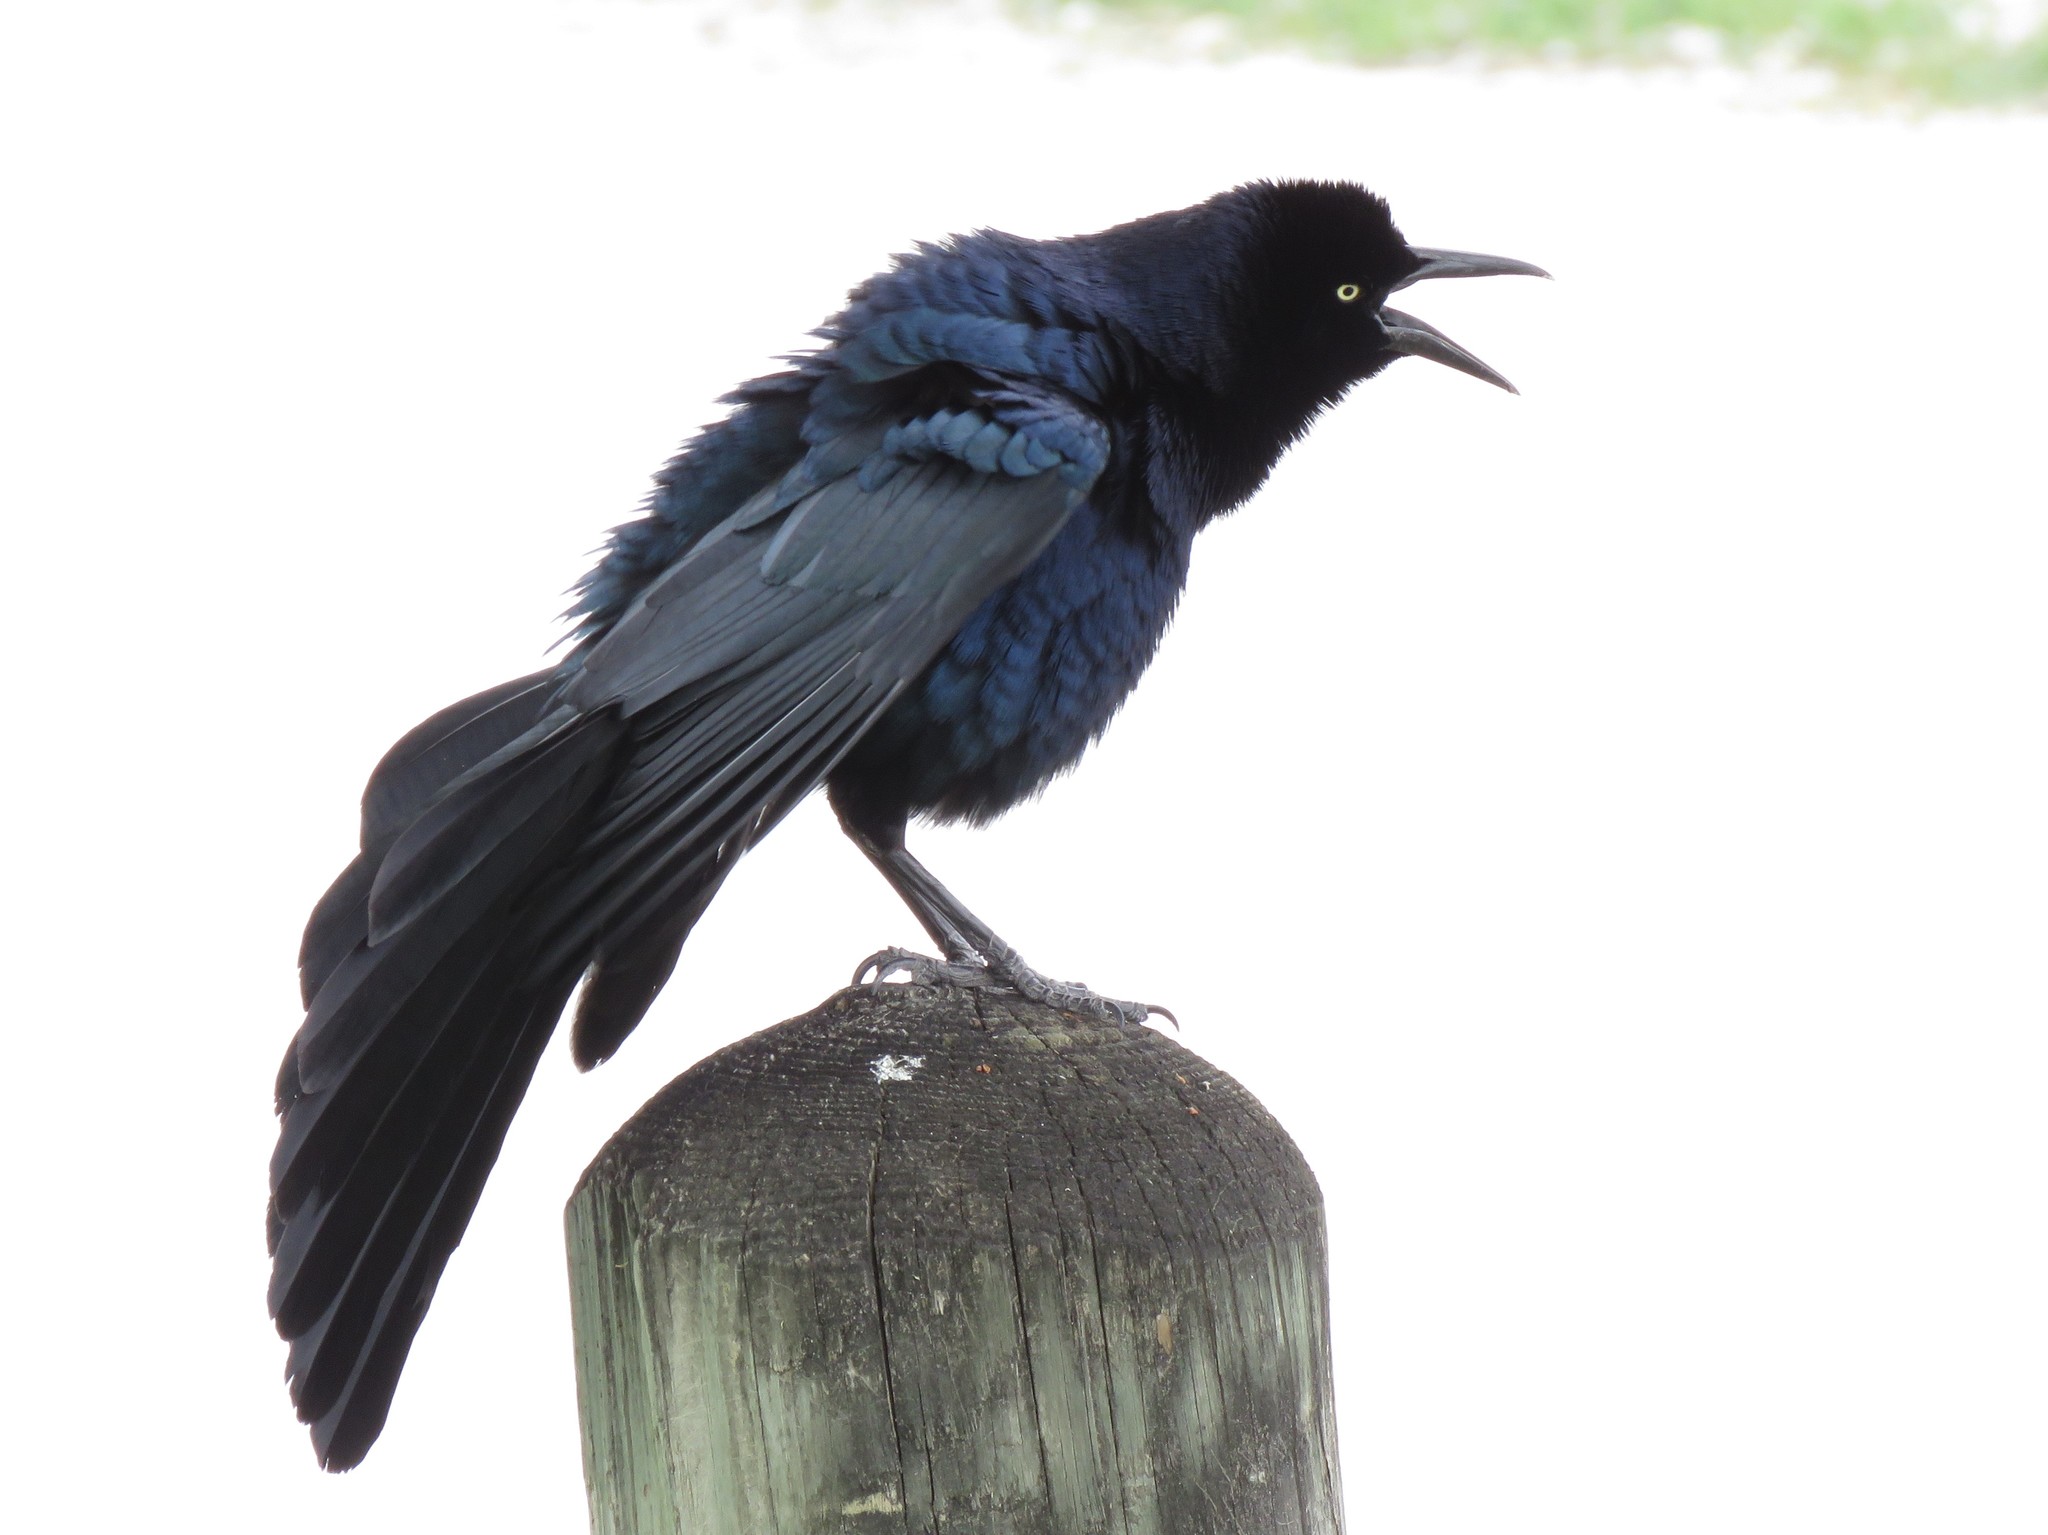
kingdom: Animalia
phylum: Chordata
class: Aves
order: Passeriformes
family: Icteridae
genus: Quiscalus
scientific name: Quiscalus mexicanus
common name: Great-tailed grackle
